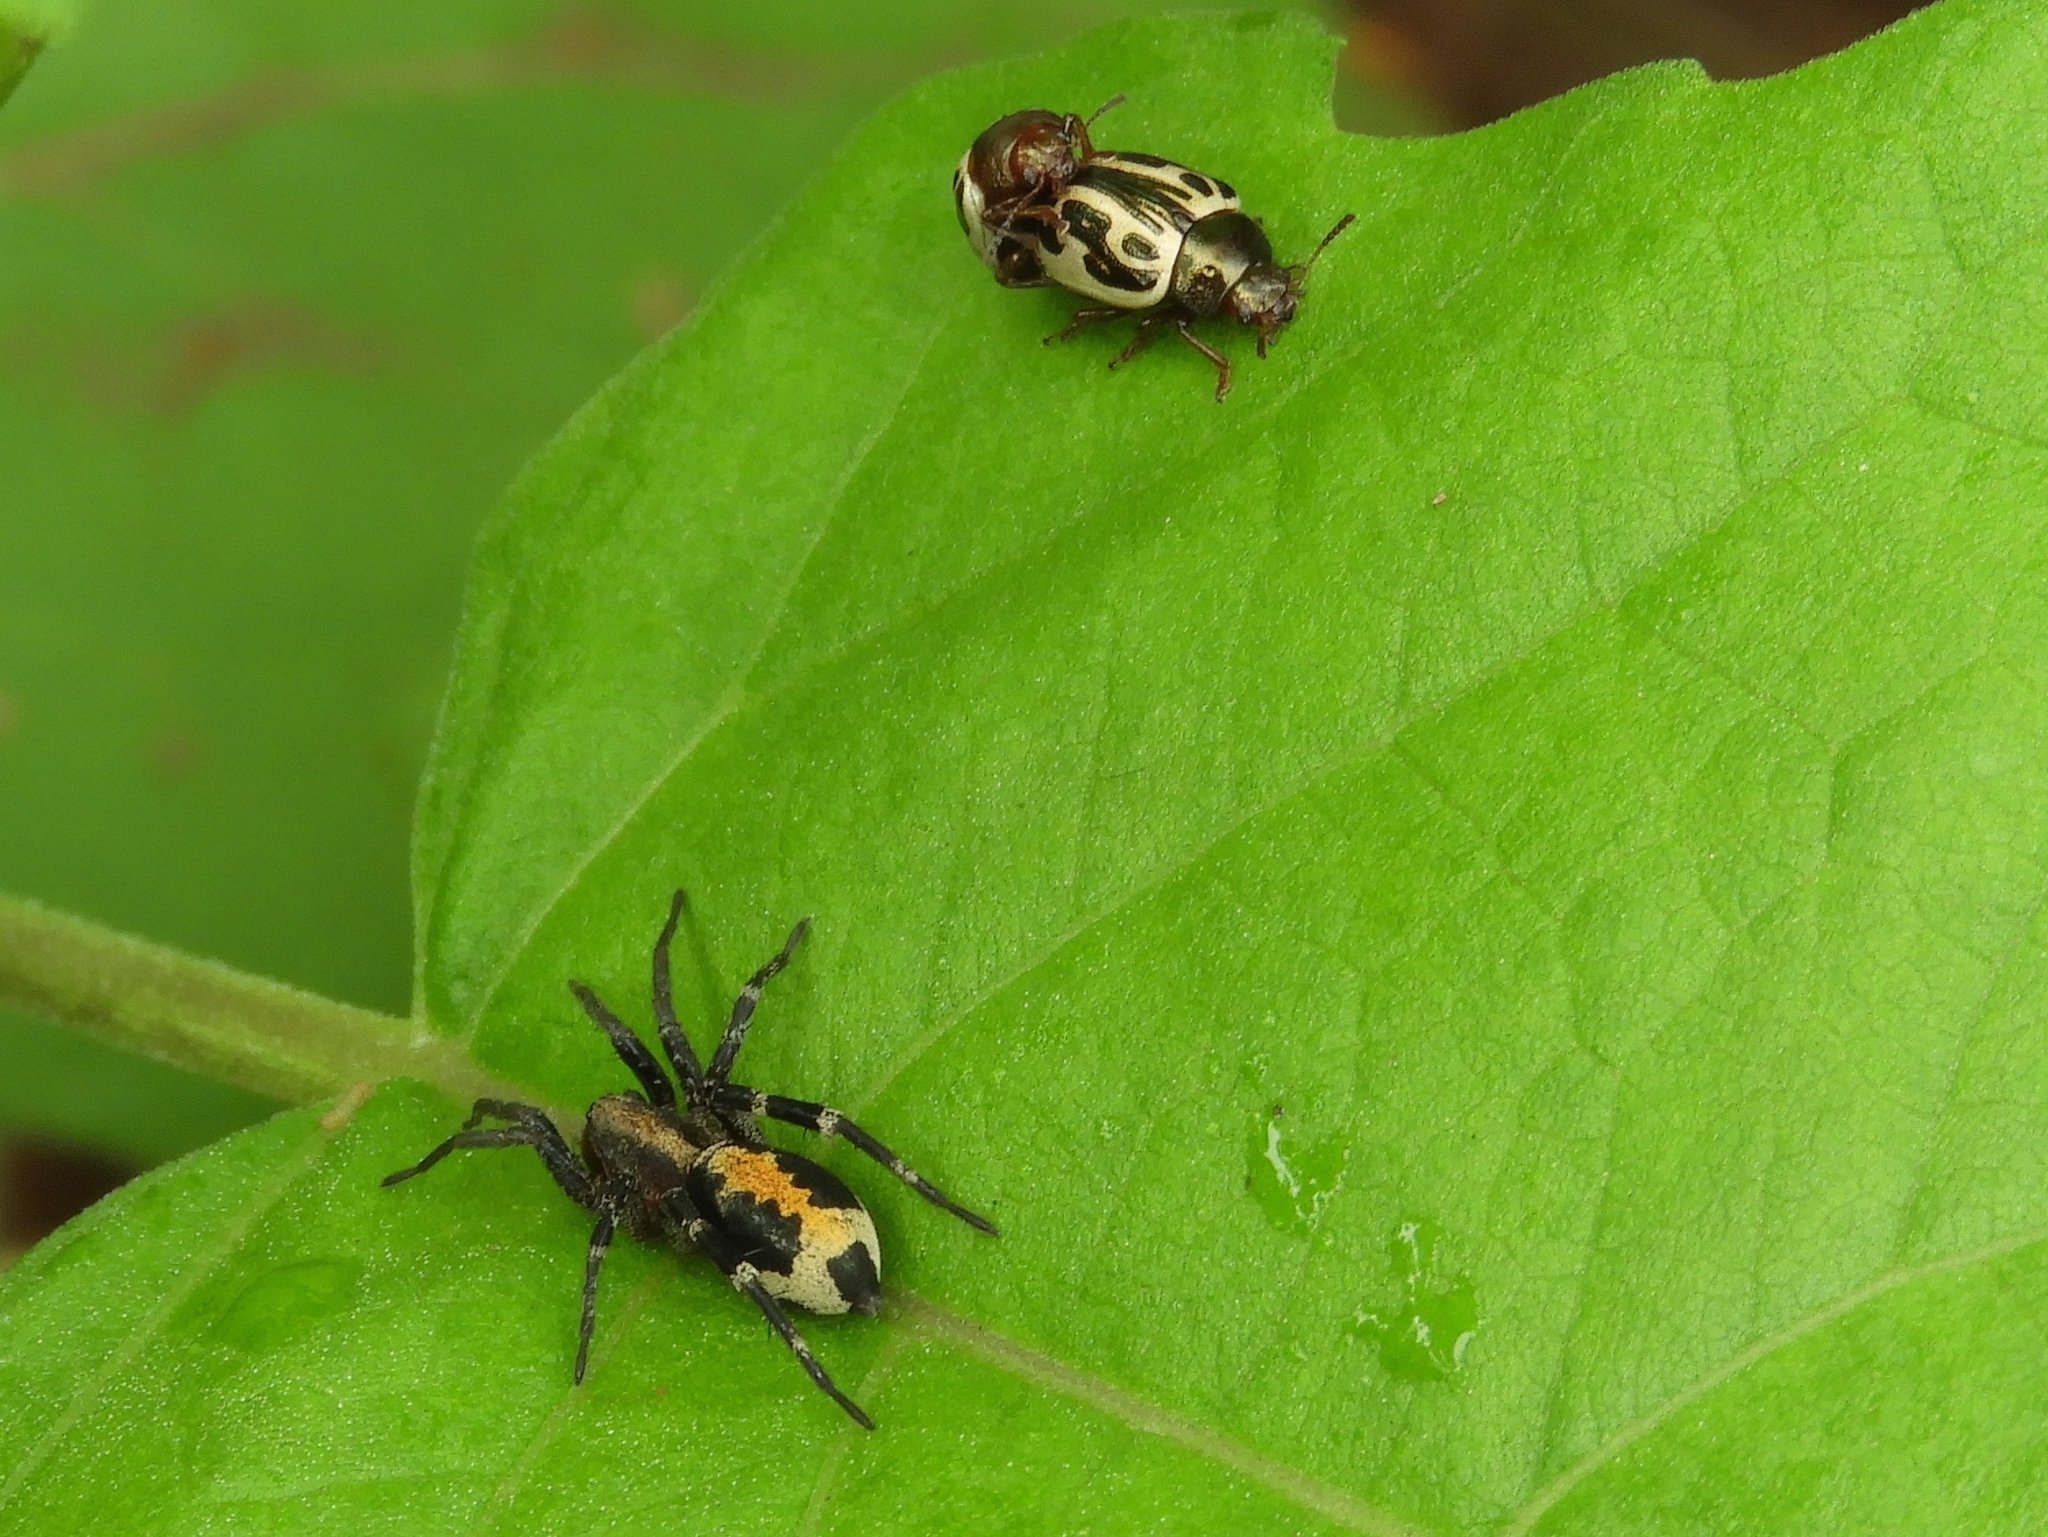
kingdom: Animalia
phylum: Arthropoda
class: Arachnida
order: Araneae
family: Corinnidae
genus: Castianeira
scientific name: Castianeira
